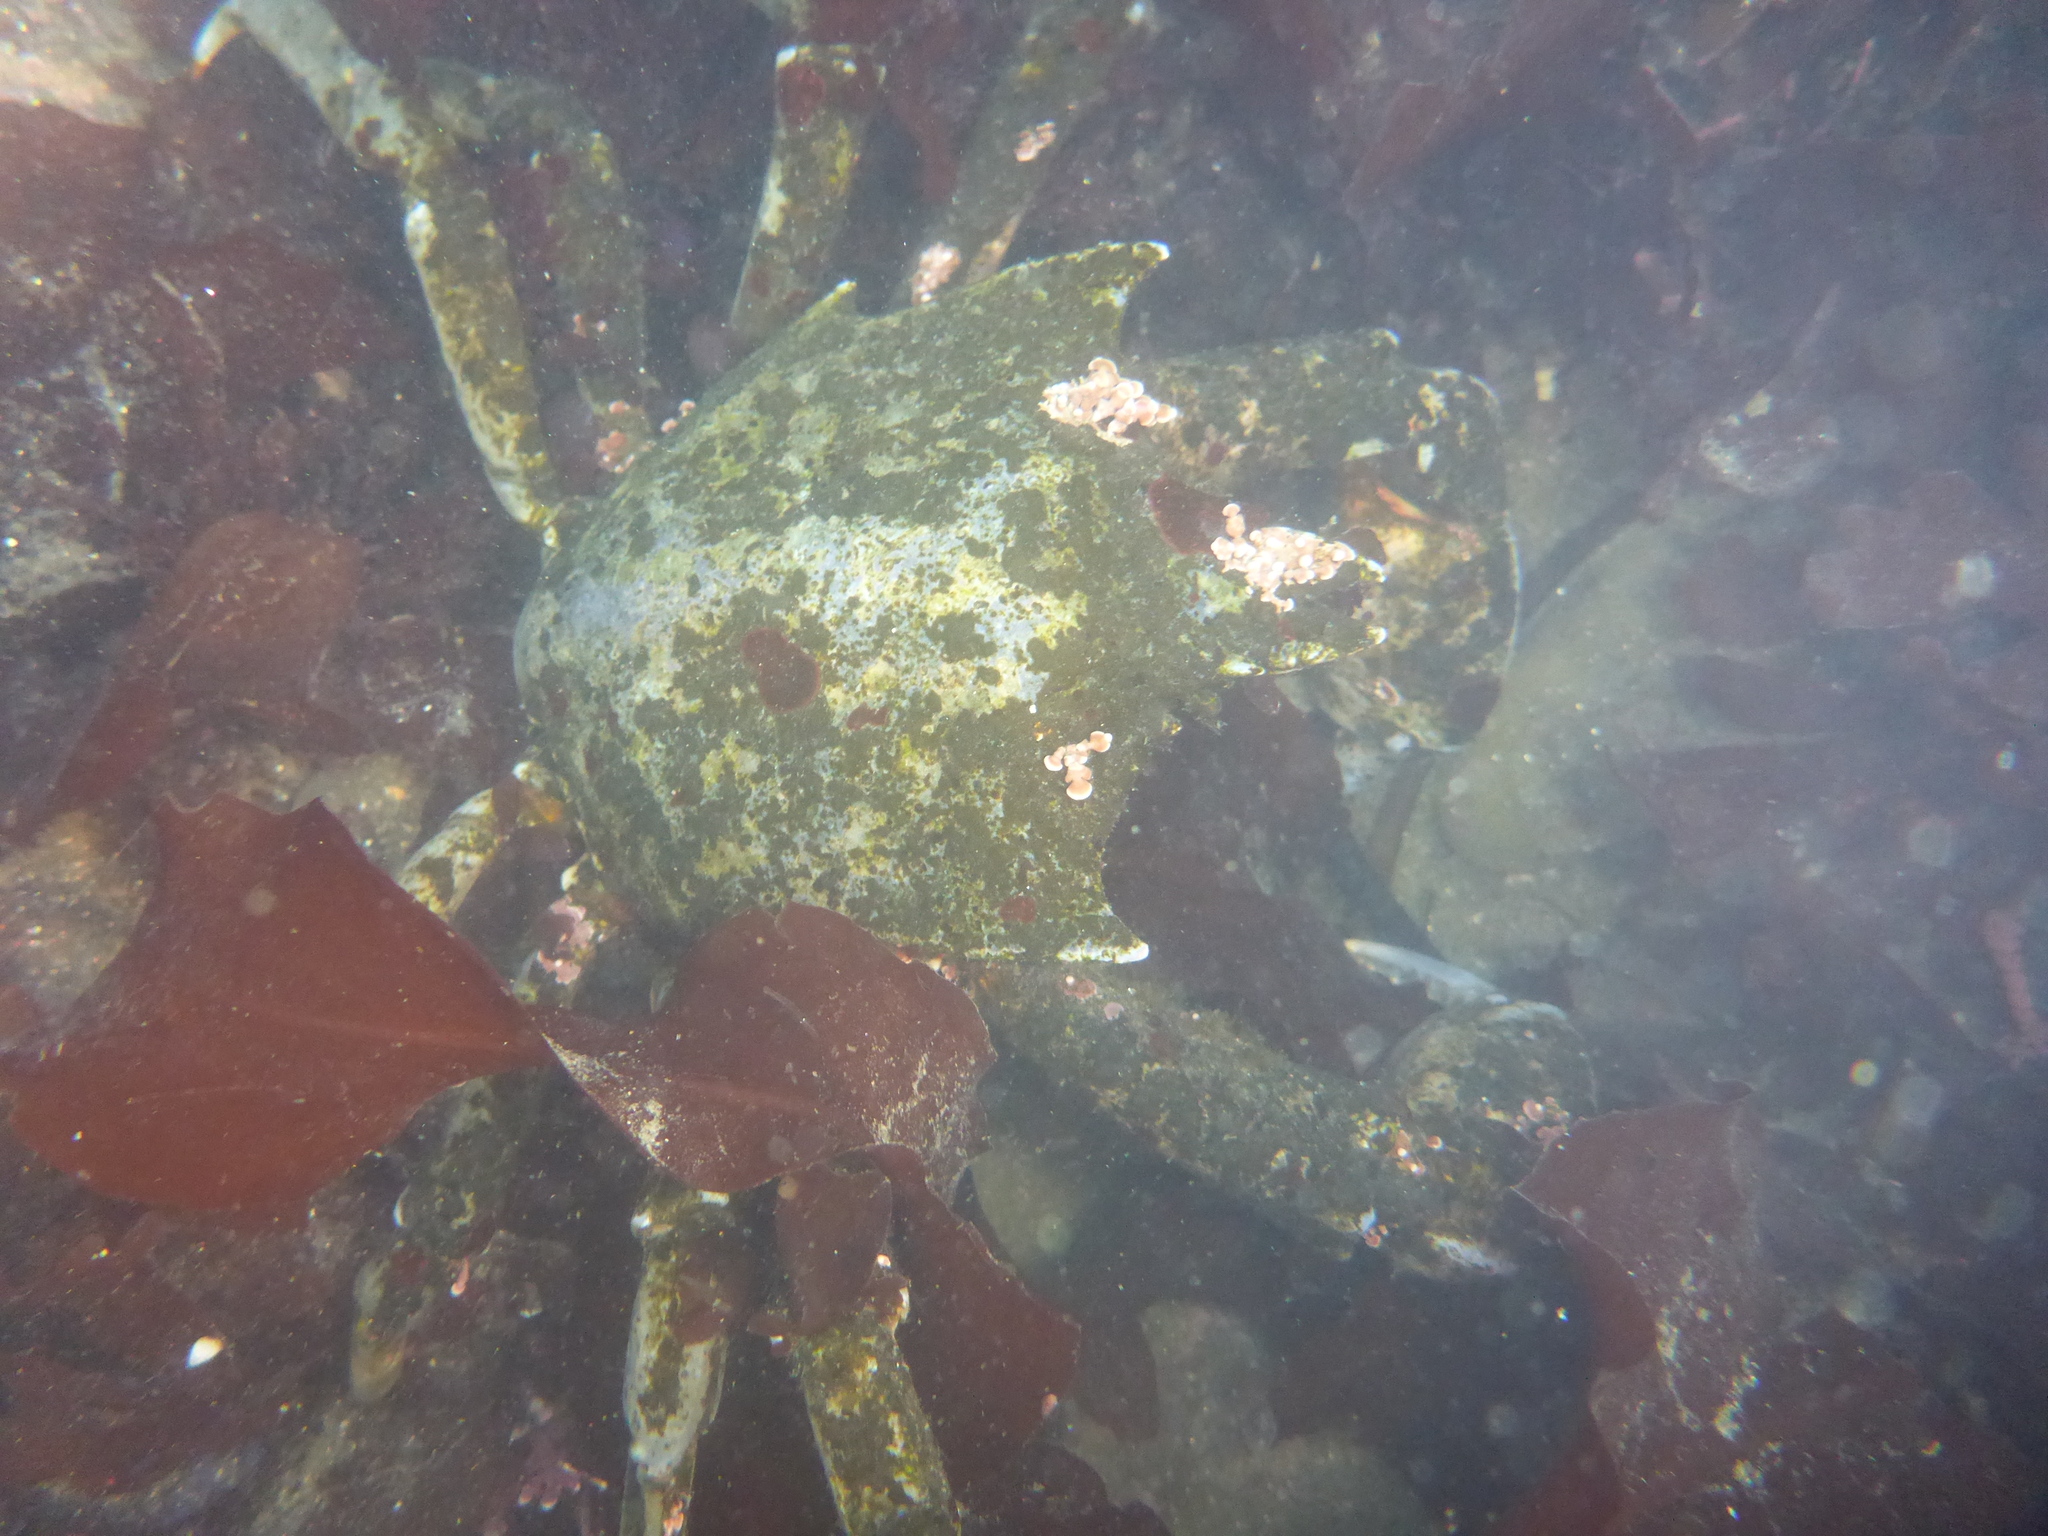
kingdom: Animalia
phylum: Arthropoda
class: Malacostraca
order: Decapoda
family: Epialtidae
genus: Pugettia
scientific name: Pugettia producta
